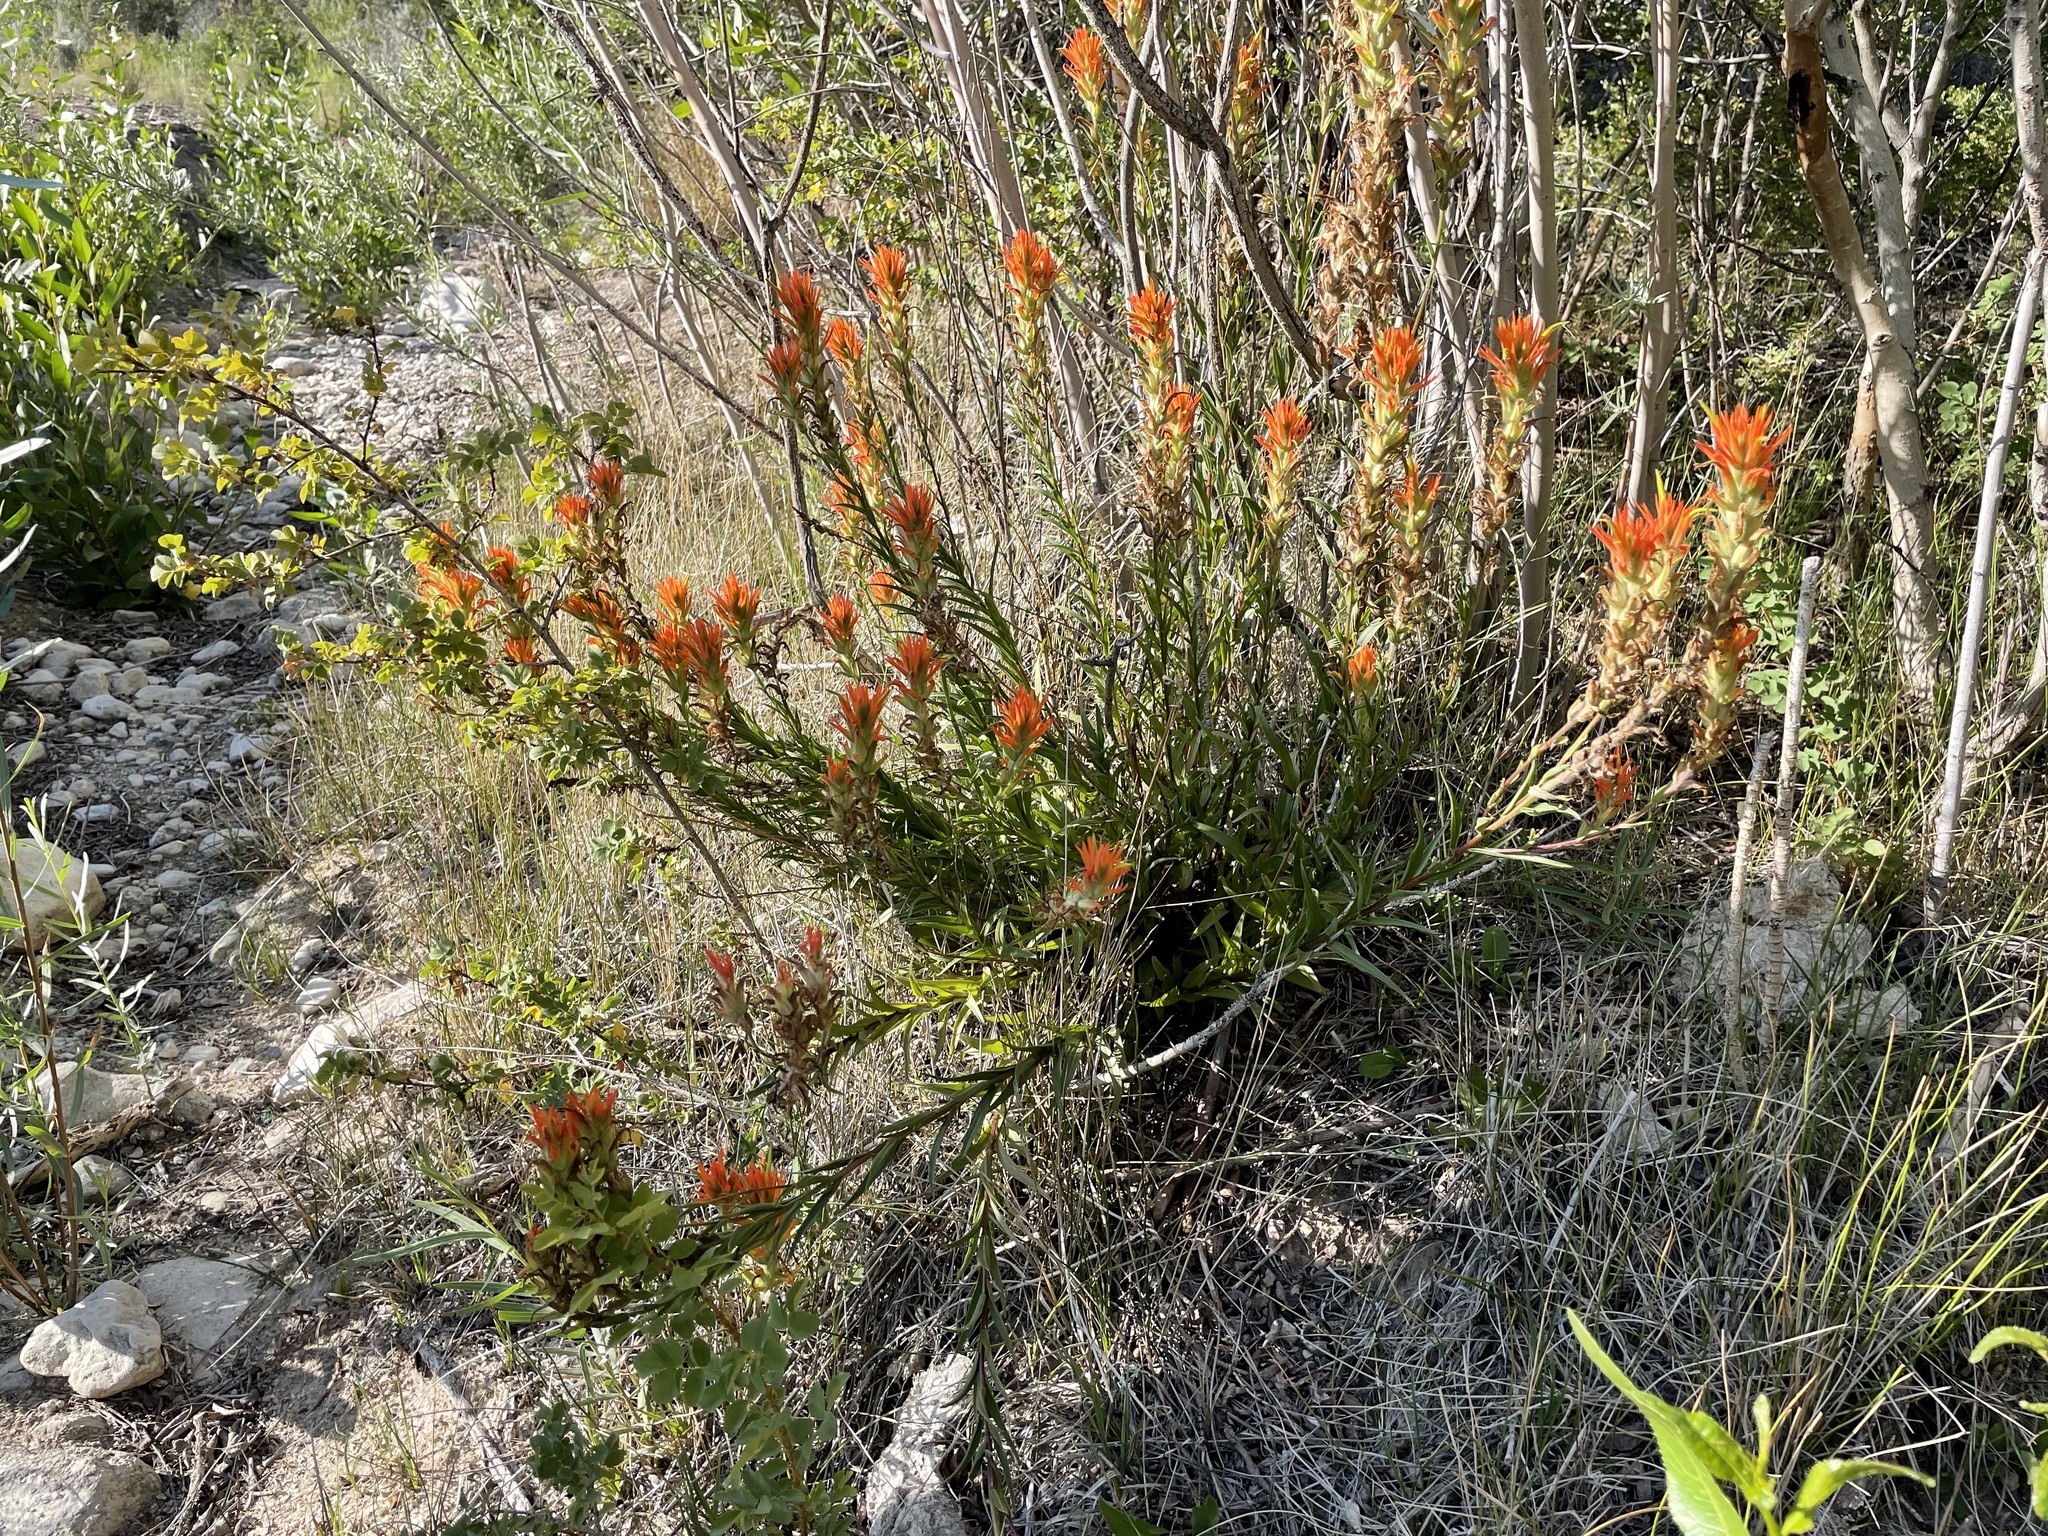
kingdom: Plantae
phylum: Tracheophyta
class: Magnoliopsida
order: Lamiales
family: Orobanchaceae
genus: Castilleja
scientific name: Castilleja miniata
